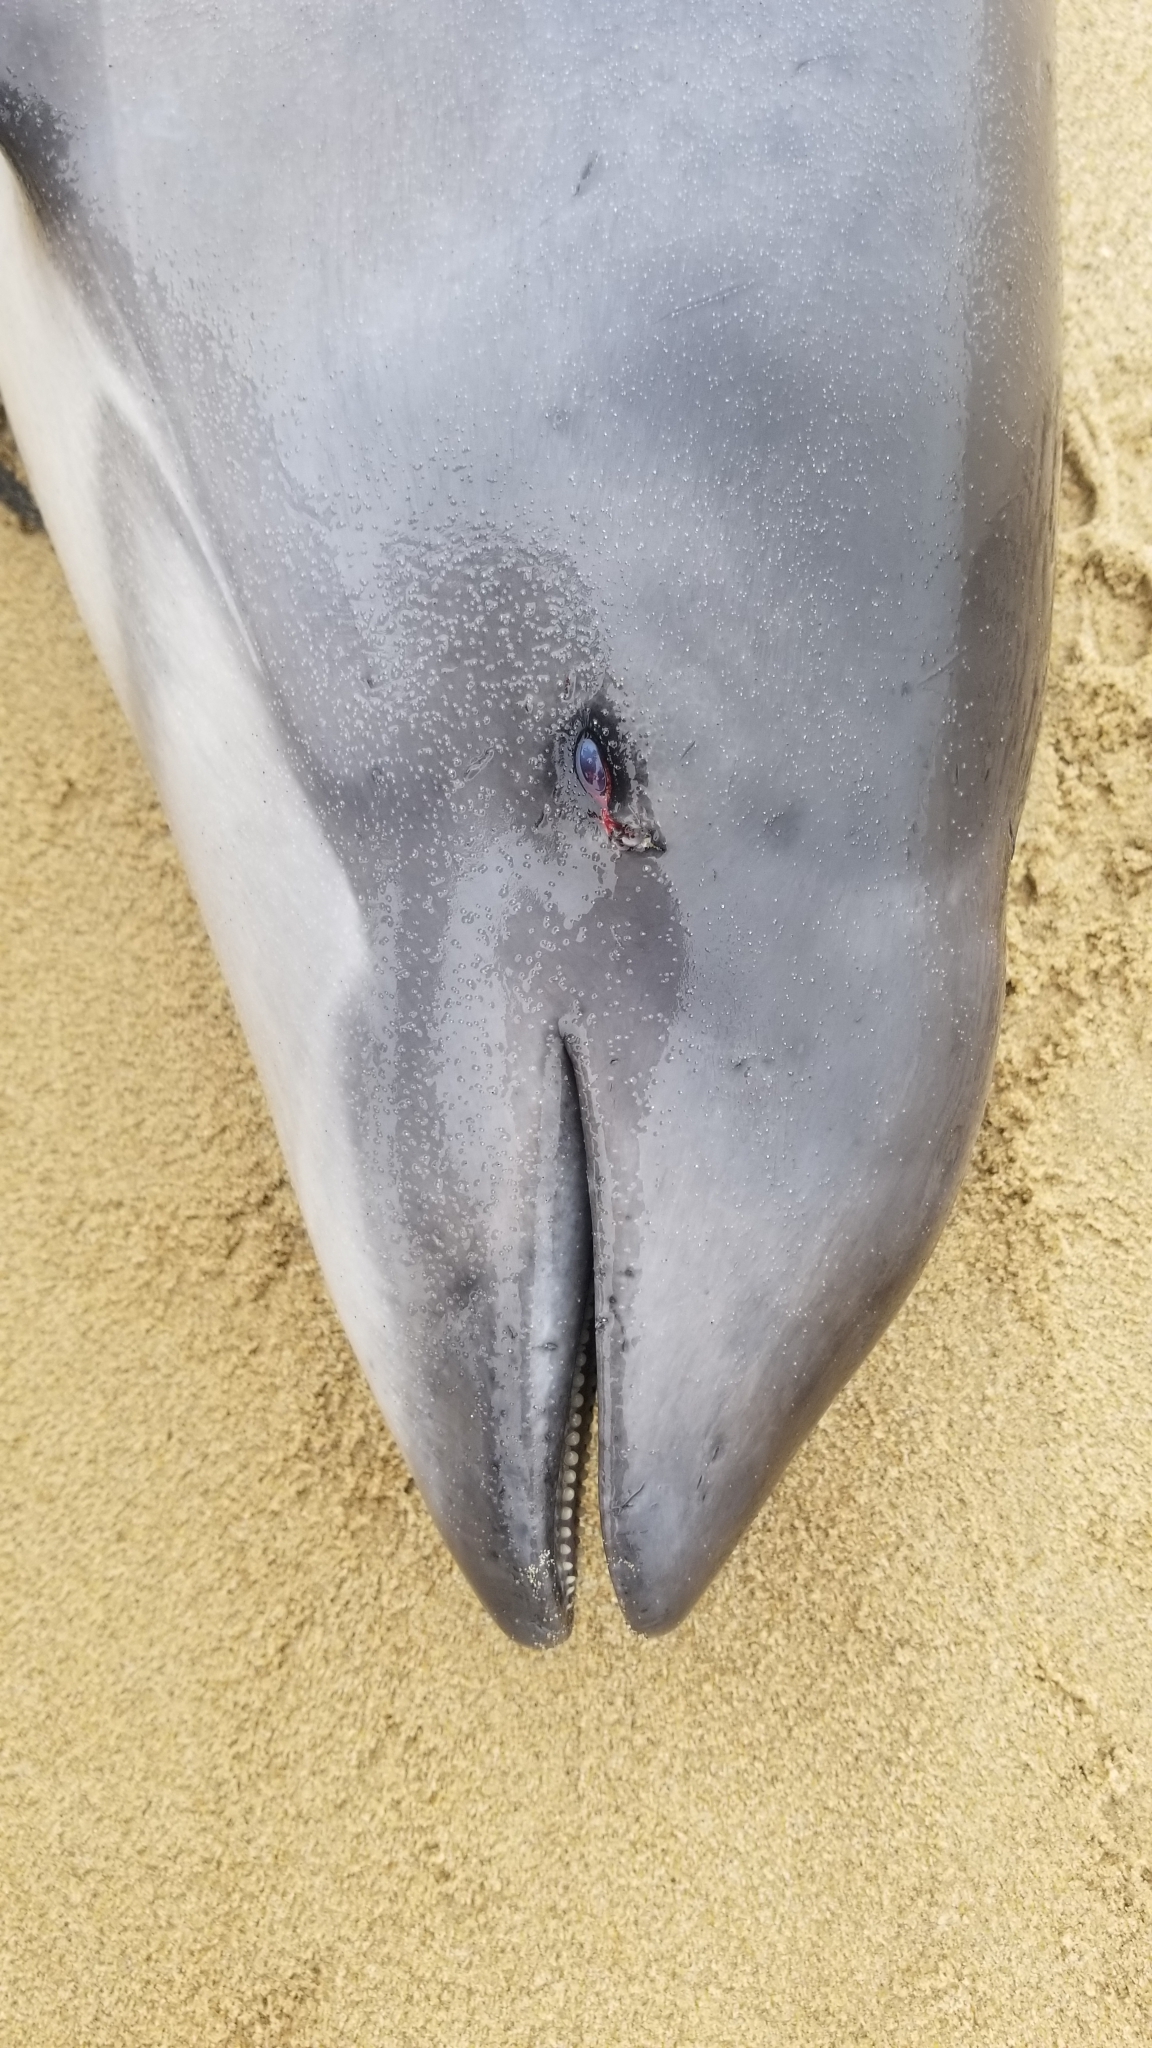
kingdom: Animalia
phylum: Chordata
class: Mammalia
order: Cetacea
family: Phocoenidae
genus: Phocoena
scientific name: Phocoena phocoena
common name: Harbor porpoise
